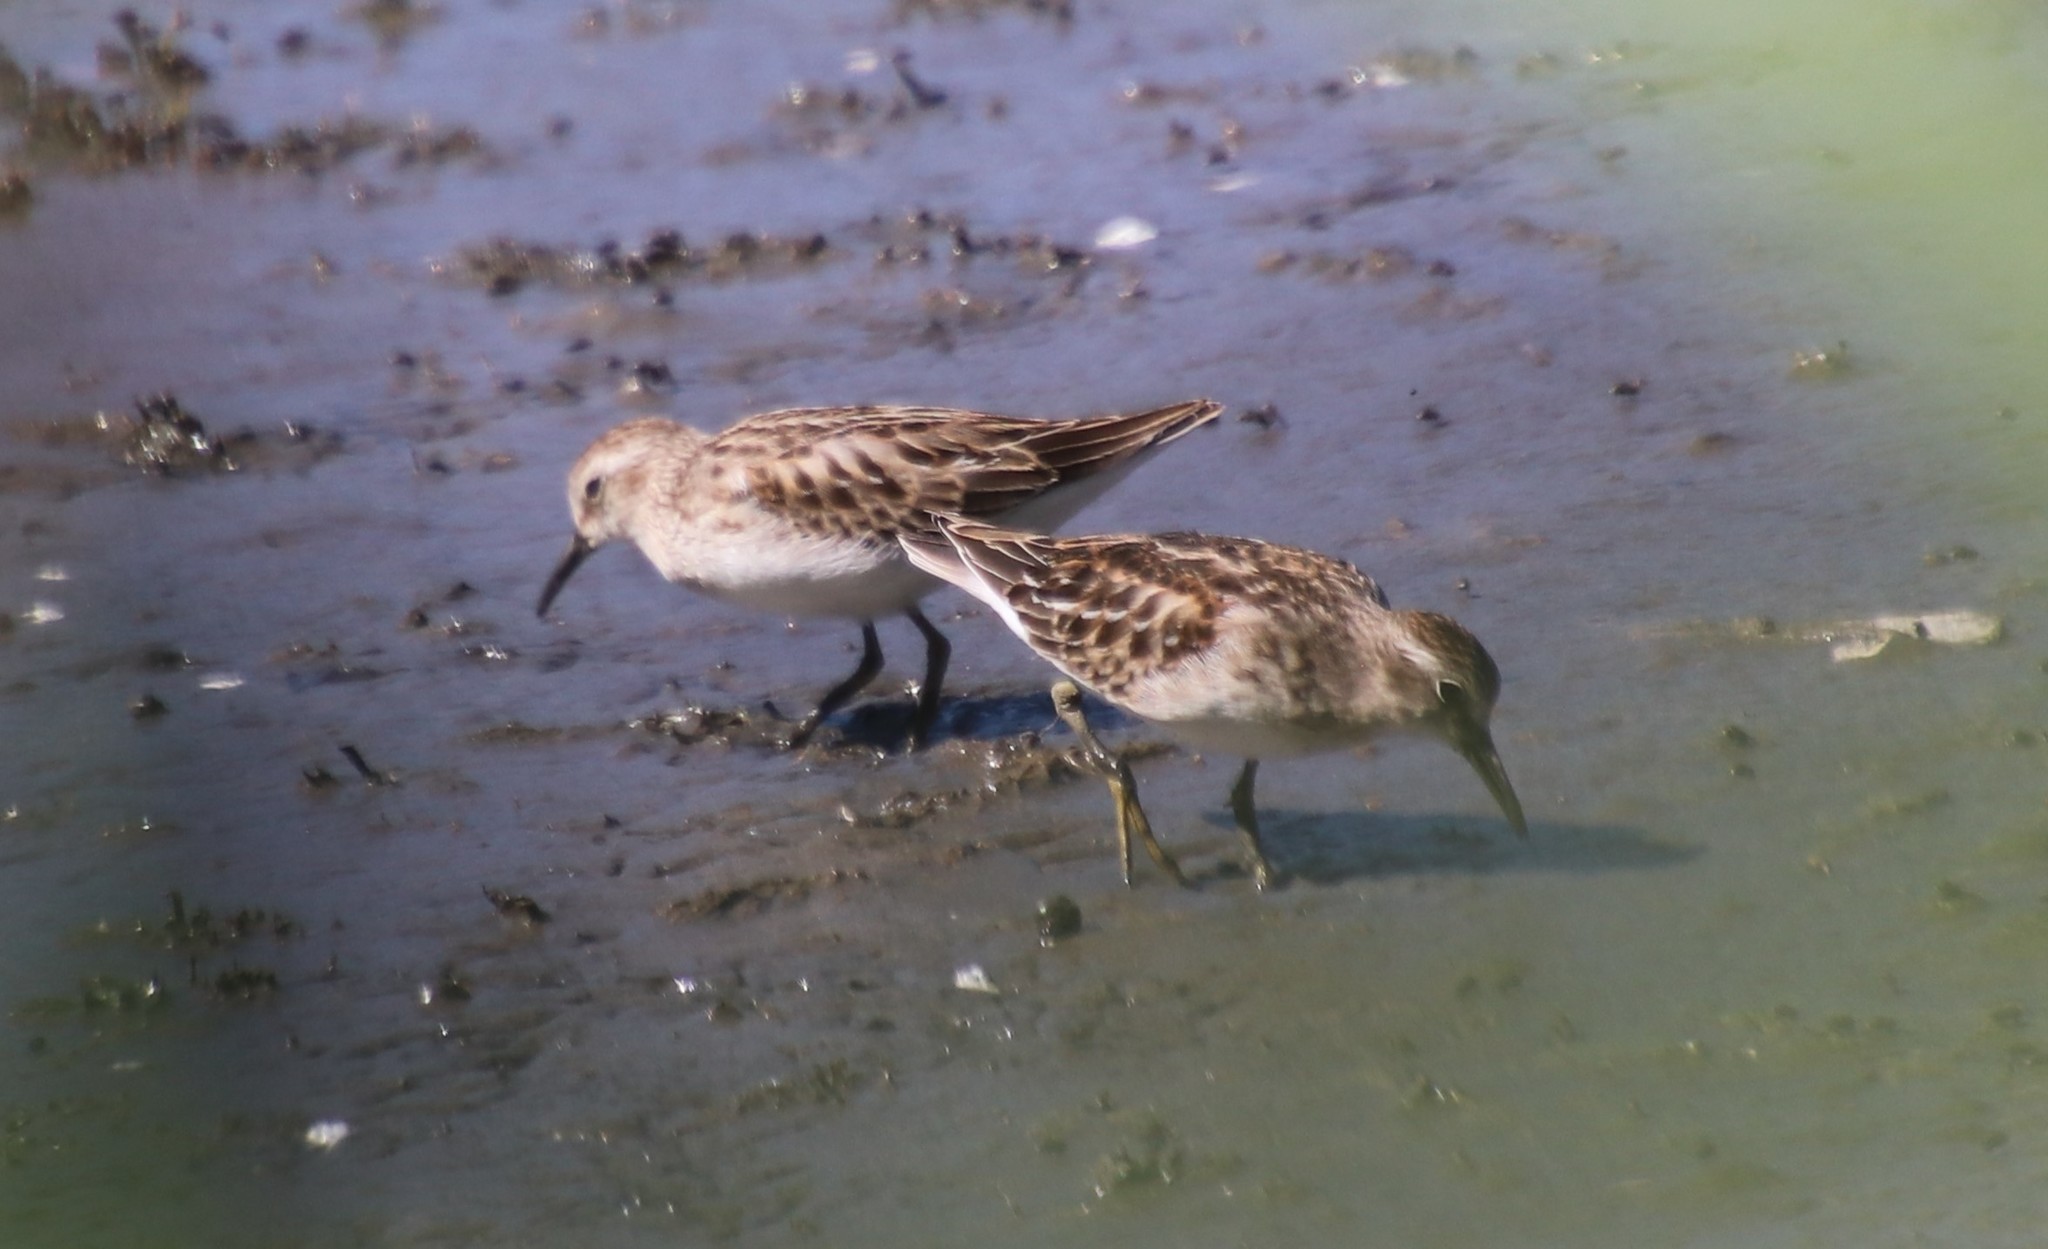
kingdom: Animalia
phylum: Chordata
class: Aves
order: Charadriiformes
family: Scolopacidae
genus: Calidris
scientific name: Calidris minutilla
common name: Least sandpiper
